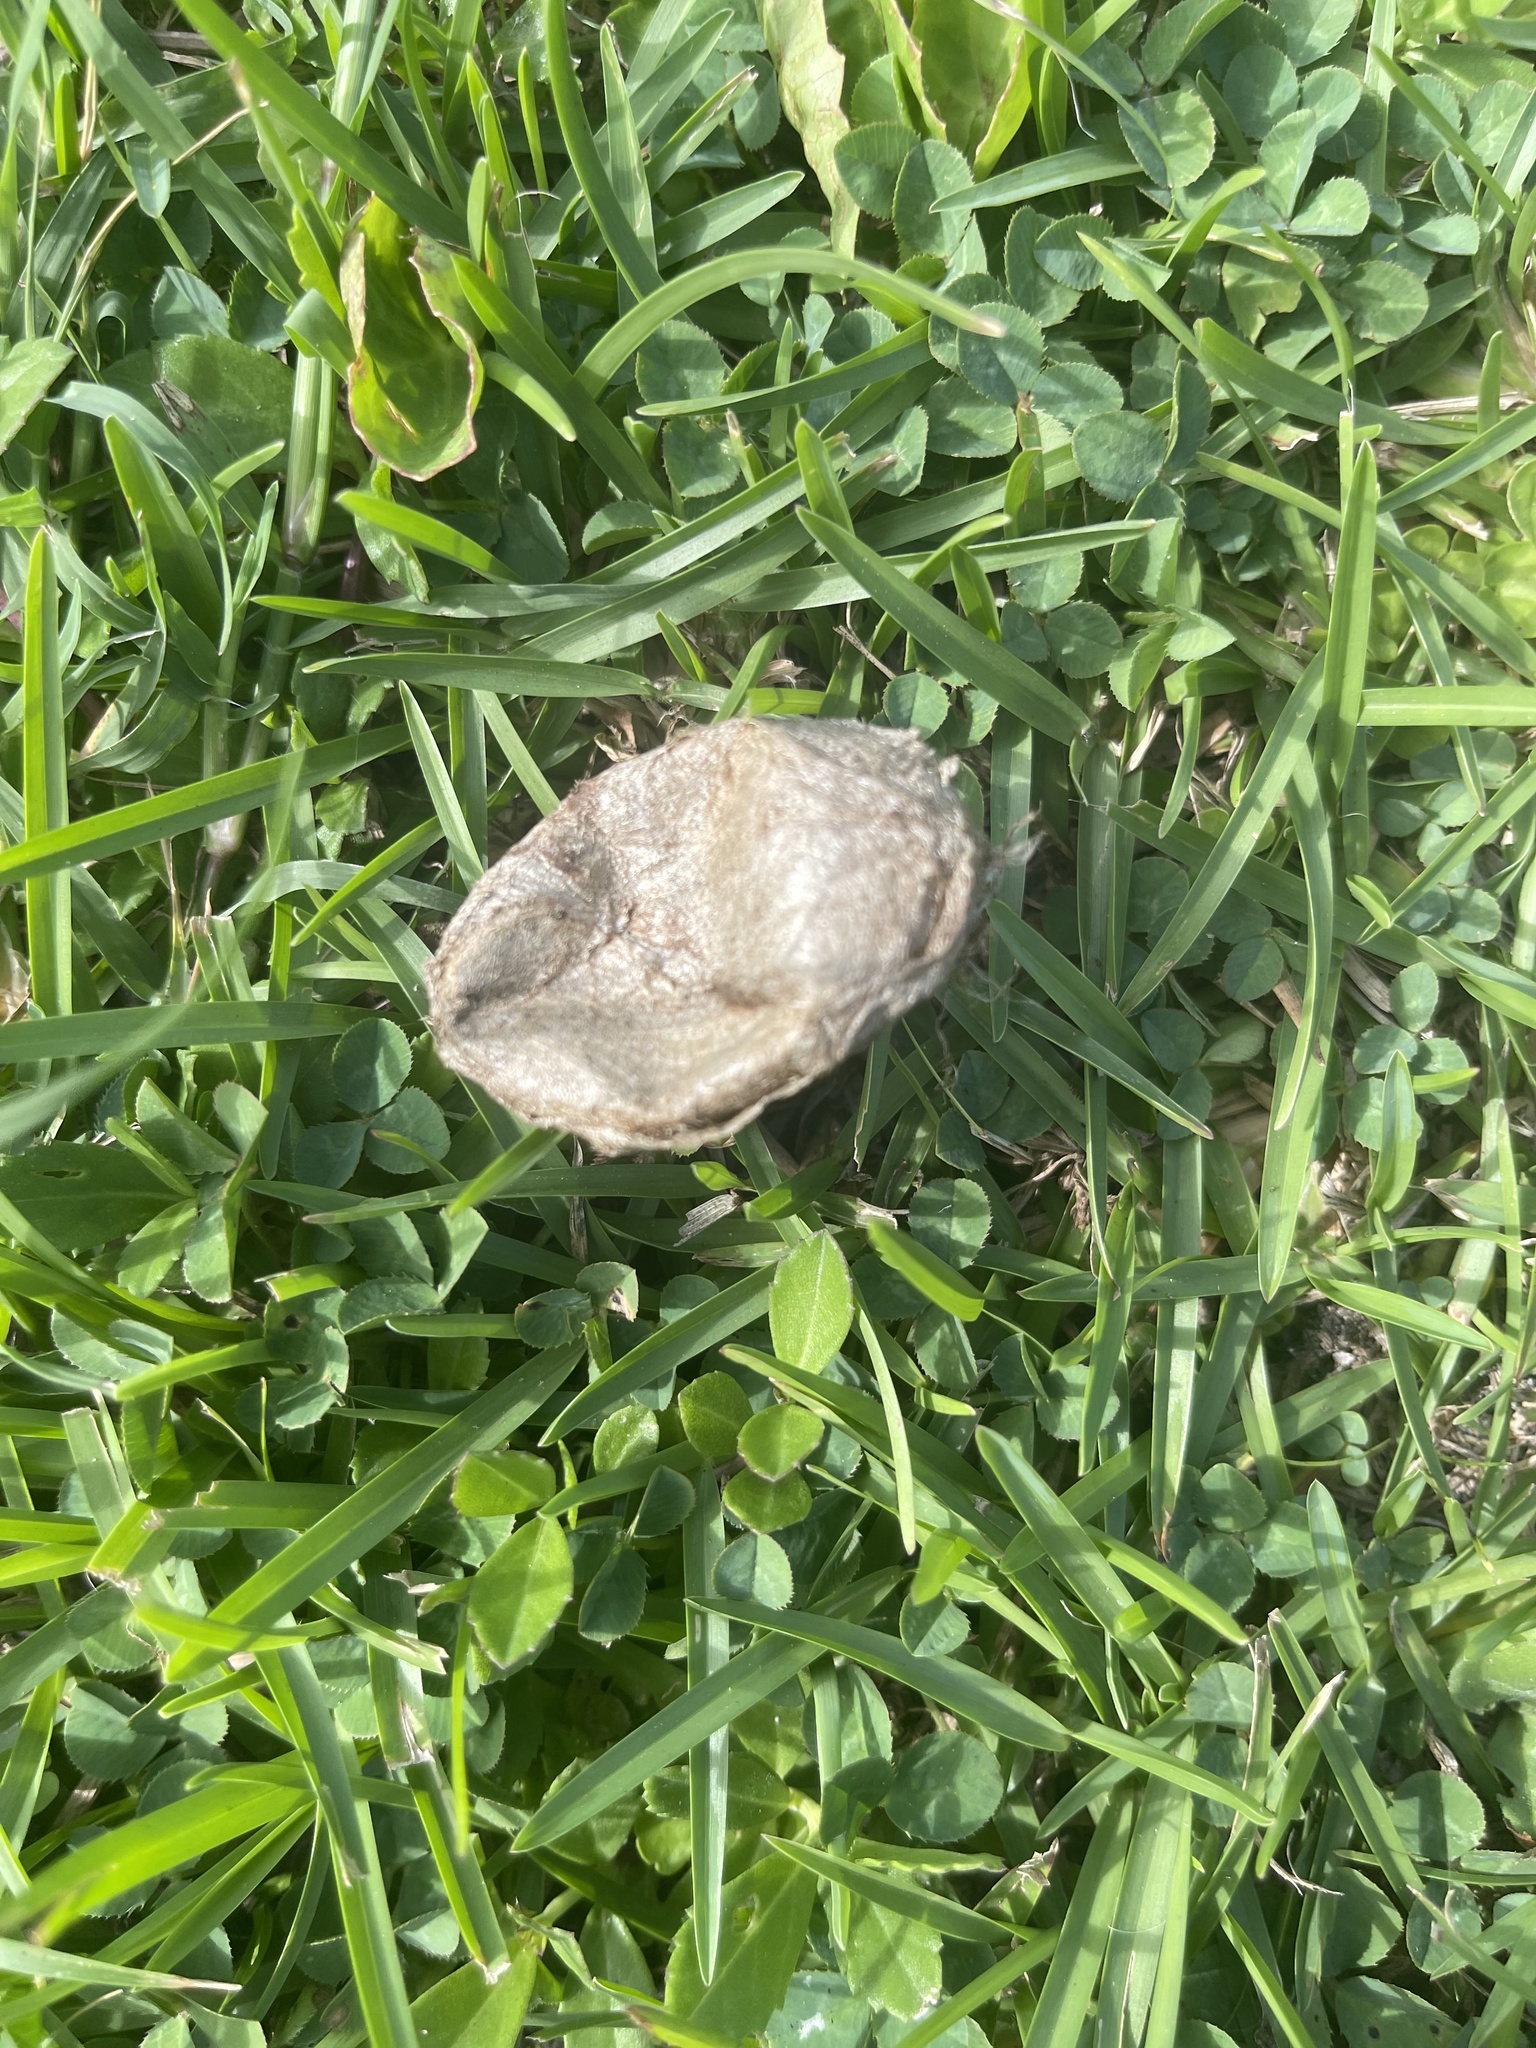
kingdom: Animalia
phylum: Arthropoda
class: Insecta
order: Lepidoptera
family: Saturniidae
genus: Antheraea
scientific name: Antheraea polyphemus
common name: Polyphemus moth
